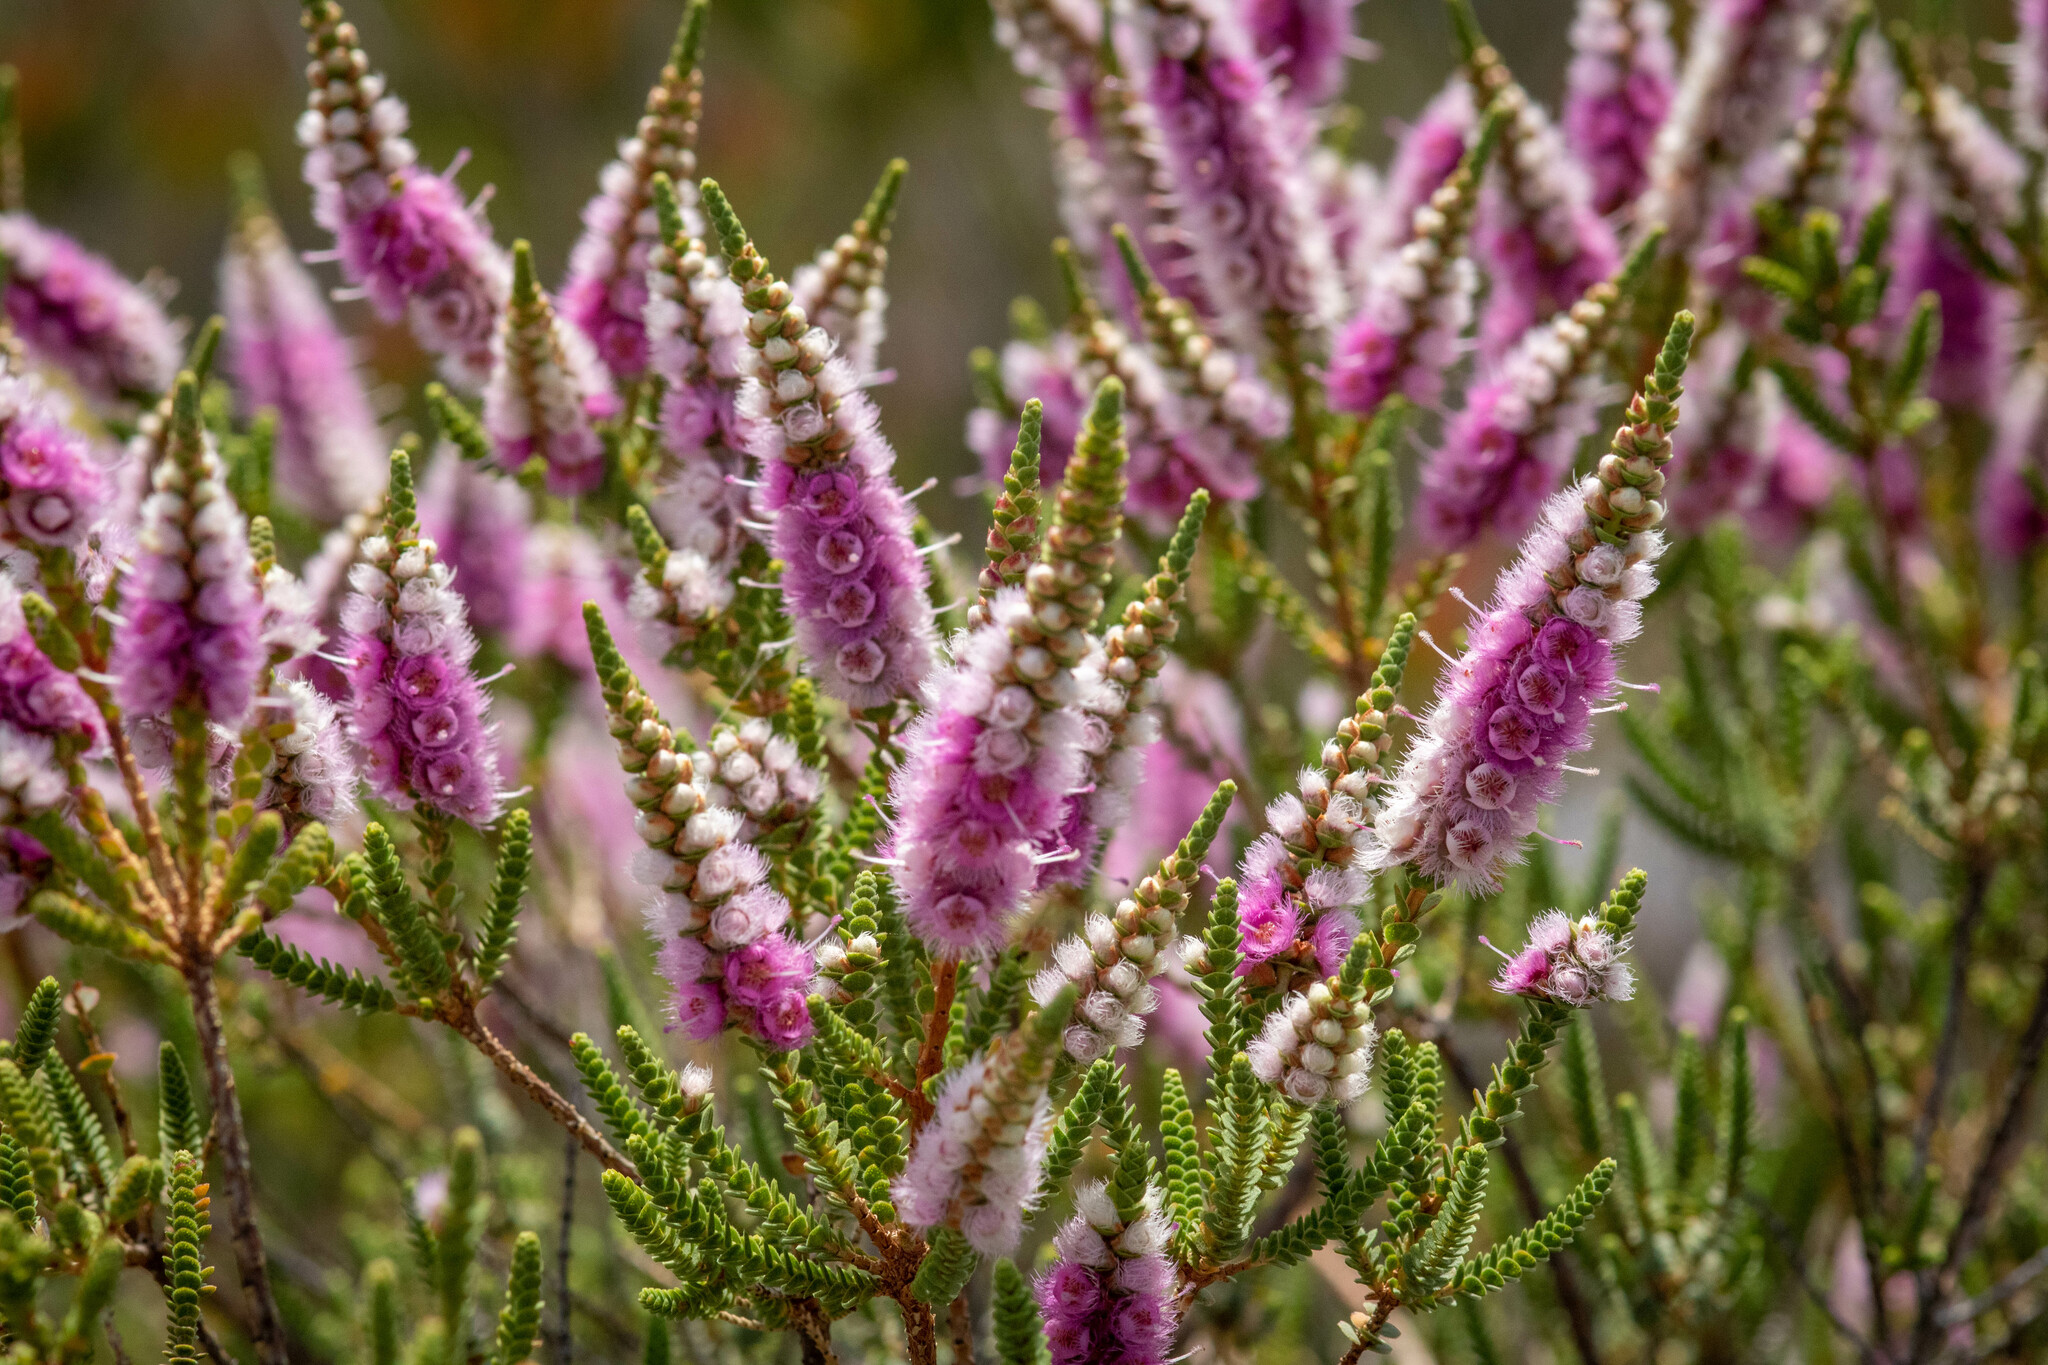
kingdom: Plantae
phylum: Tracheophyta
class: Magnoliopsida
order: Myrtales
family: Myrtaceae
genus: Verticordia
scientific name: Verticordia spicata
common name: Spike feather-flower
